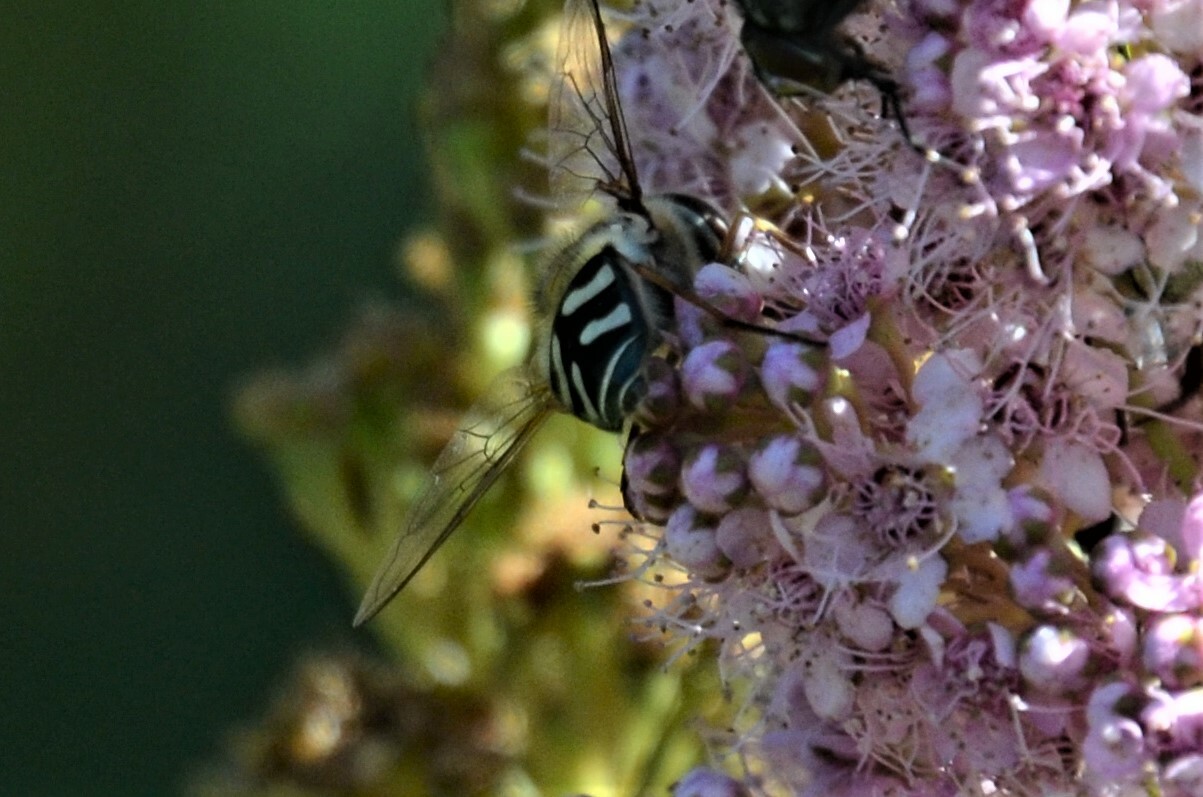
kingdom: Animalia
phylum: Arthropoda
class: Insecta
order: Diptera
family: Syrphidae
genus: Scaeva
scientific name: Scaeva pyrastri
